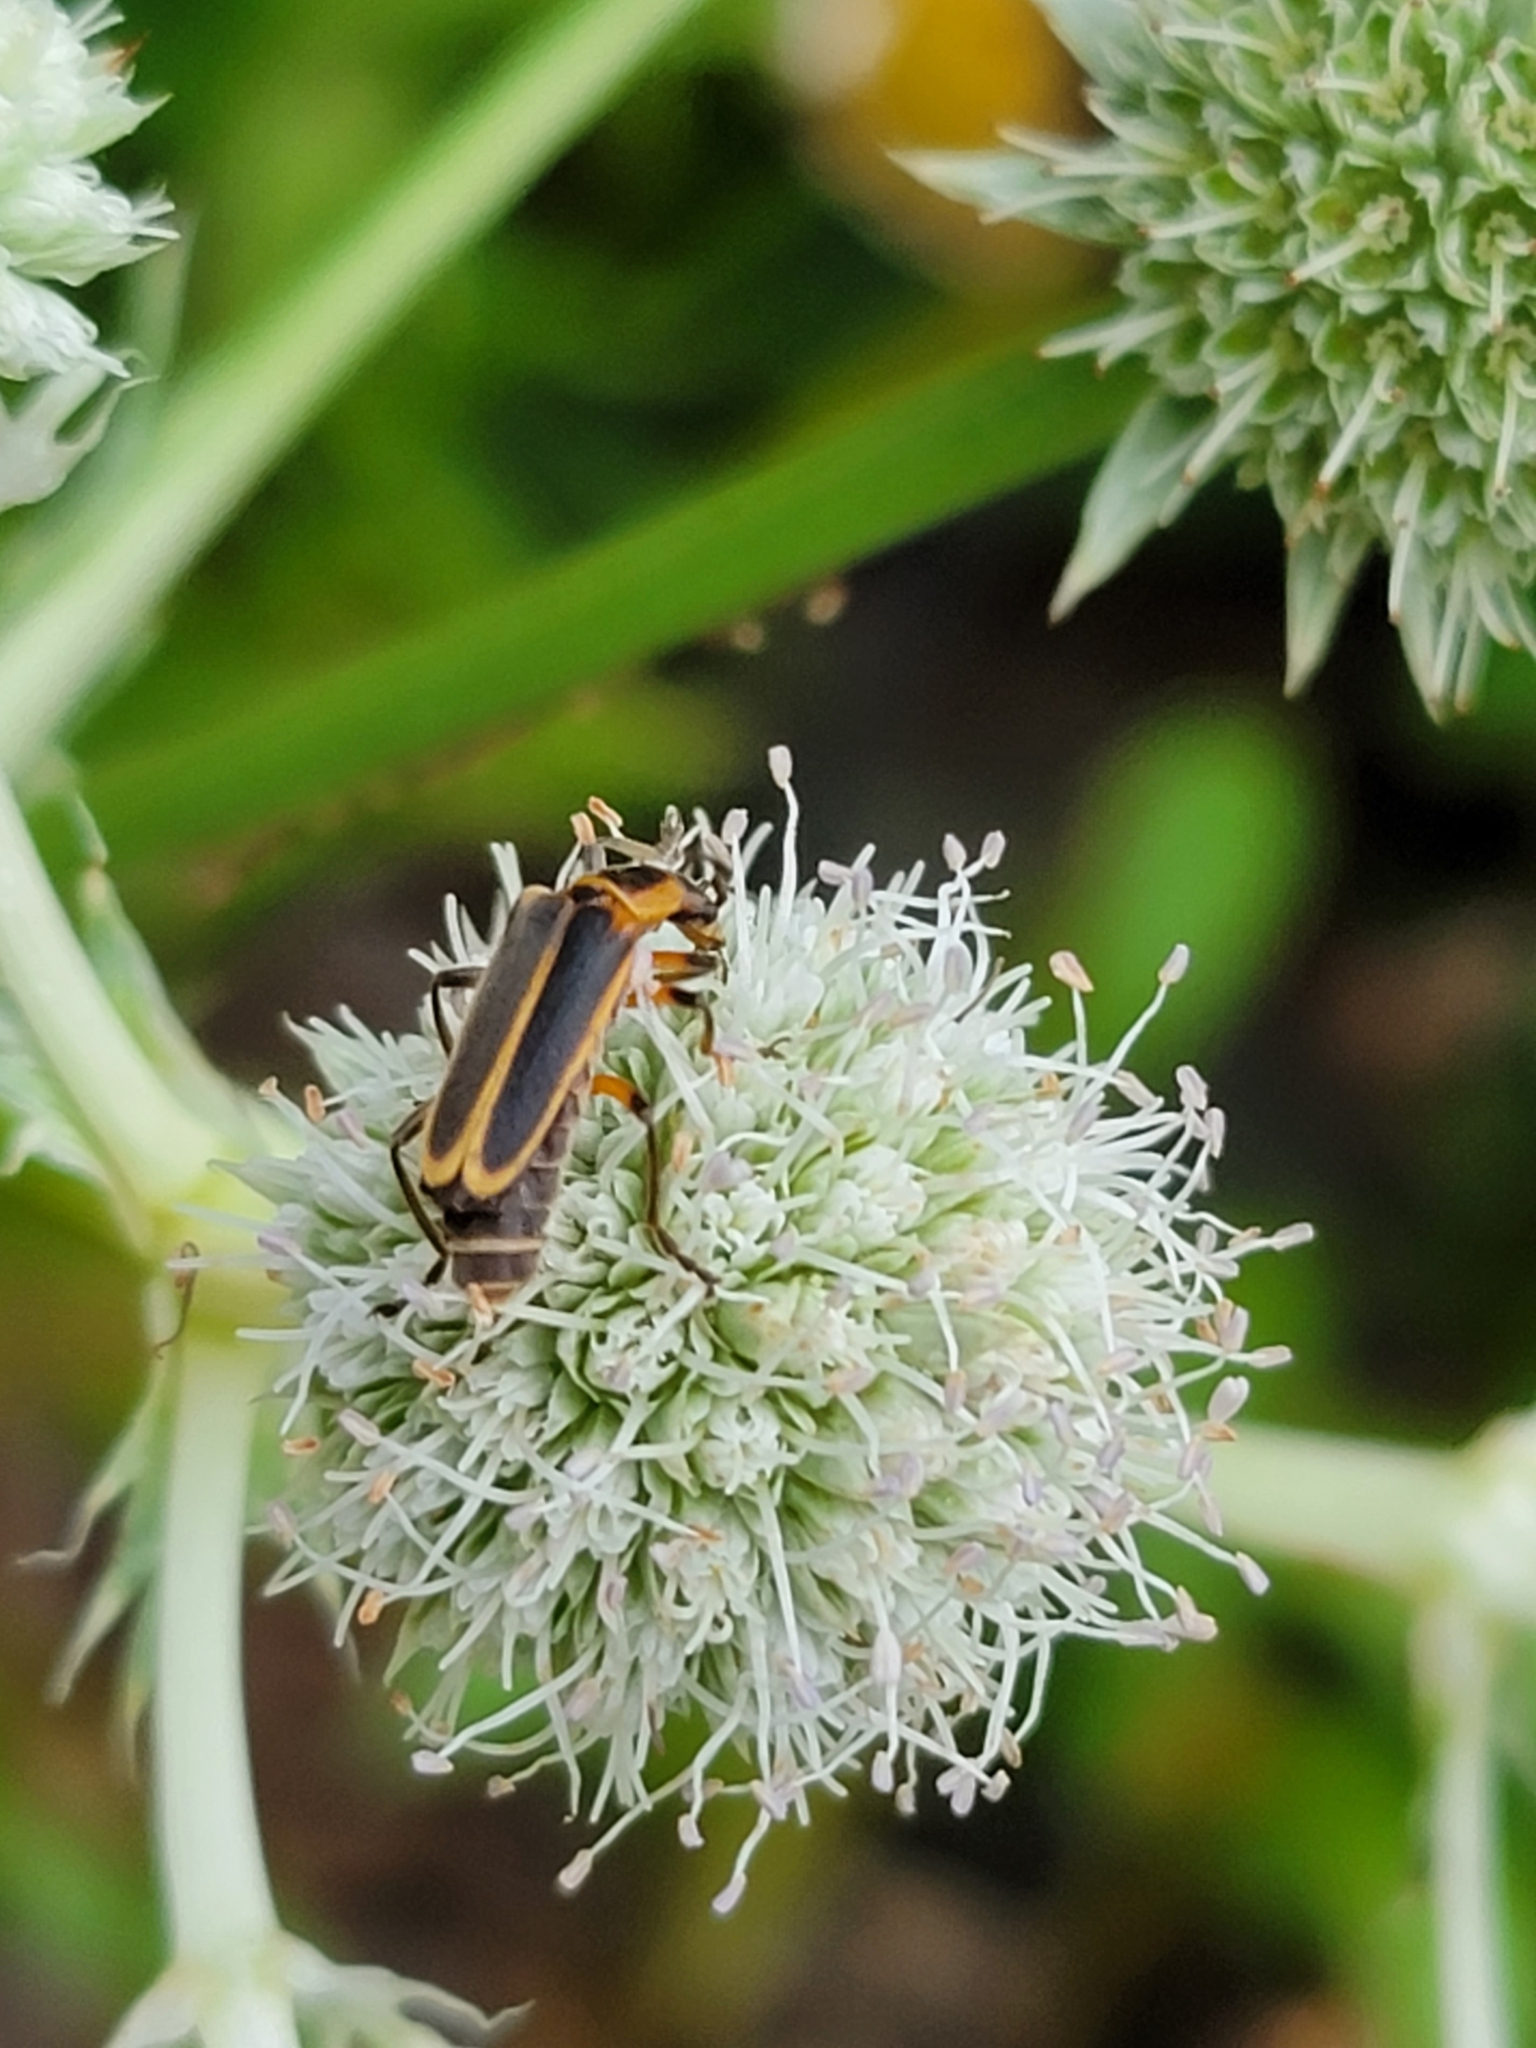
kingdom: Animalia
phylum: Arthropoda
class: Insecta
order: Coleoptera
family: Cantharidae
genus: Chauliognathus
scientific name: Chauliognathus marginatus
